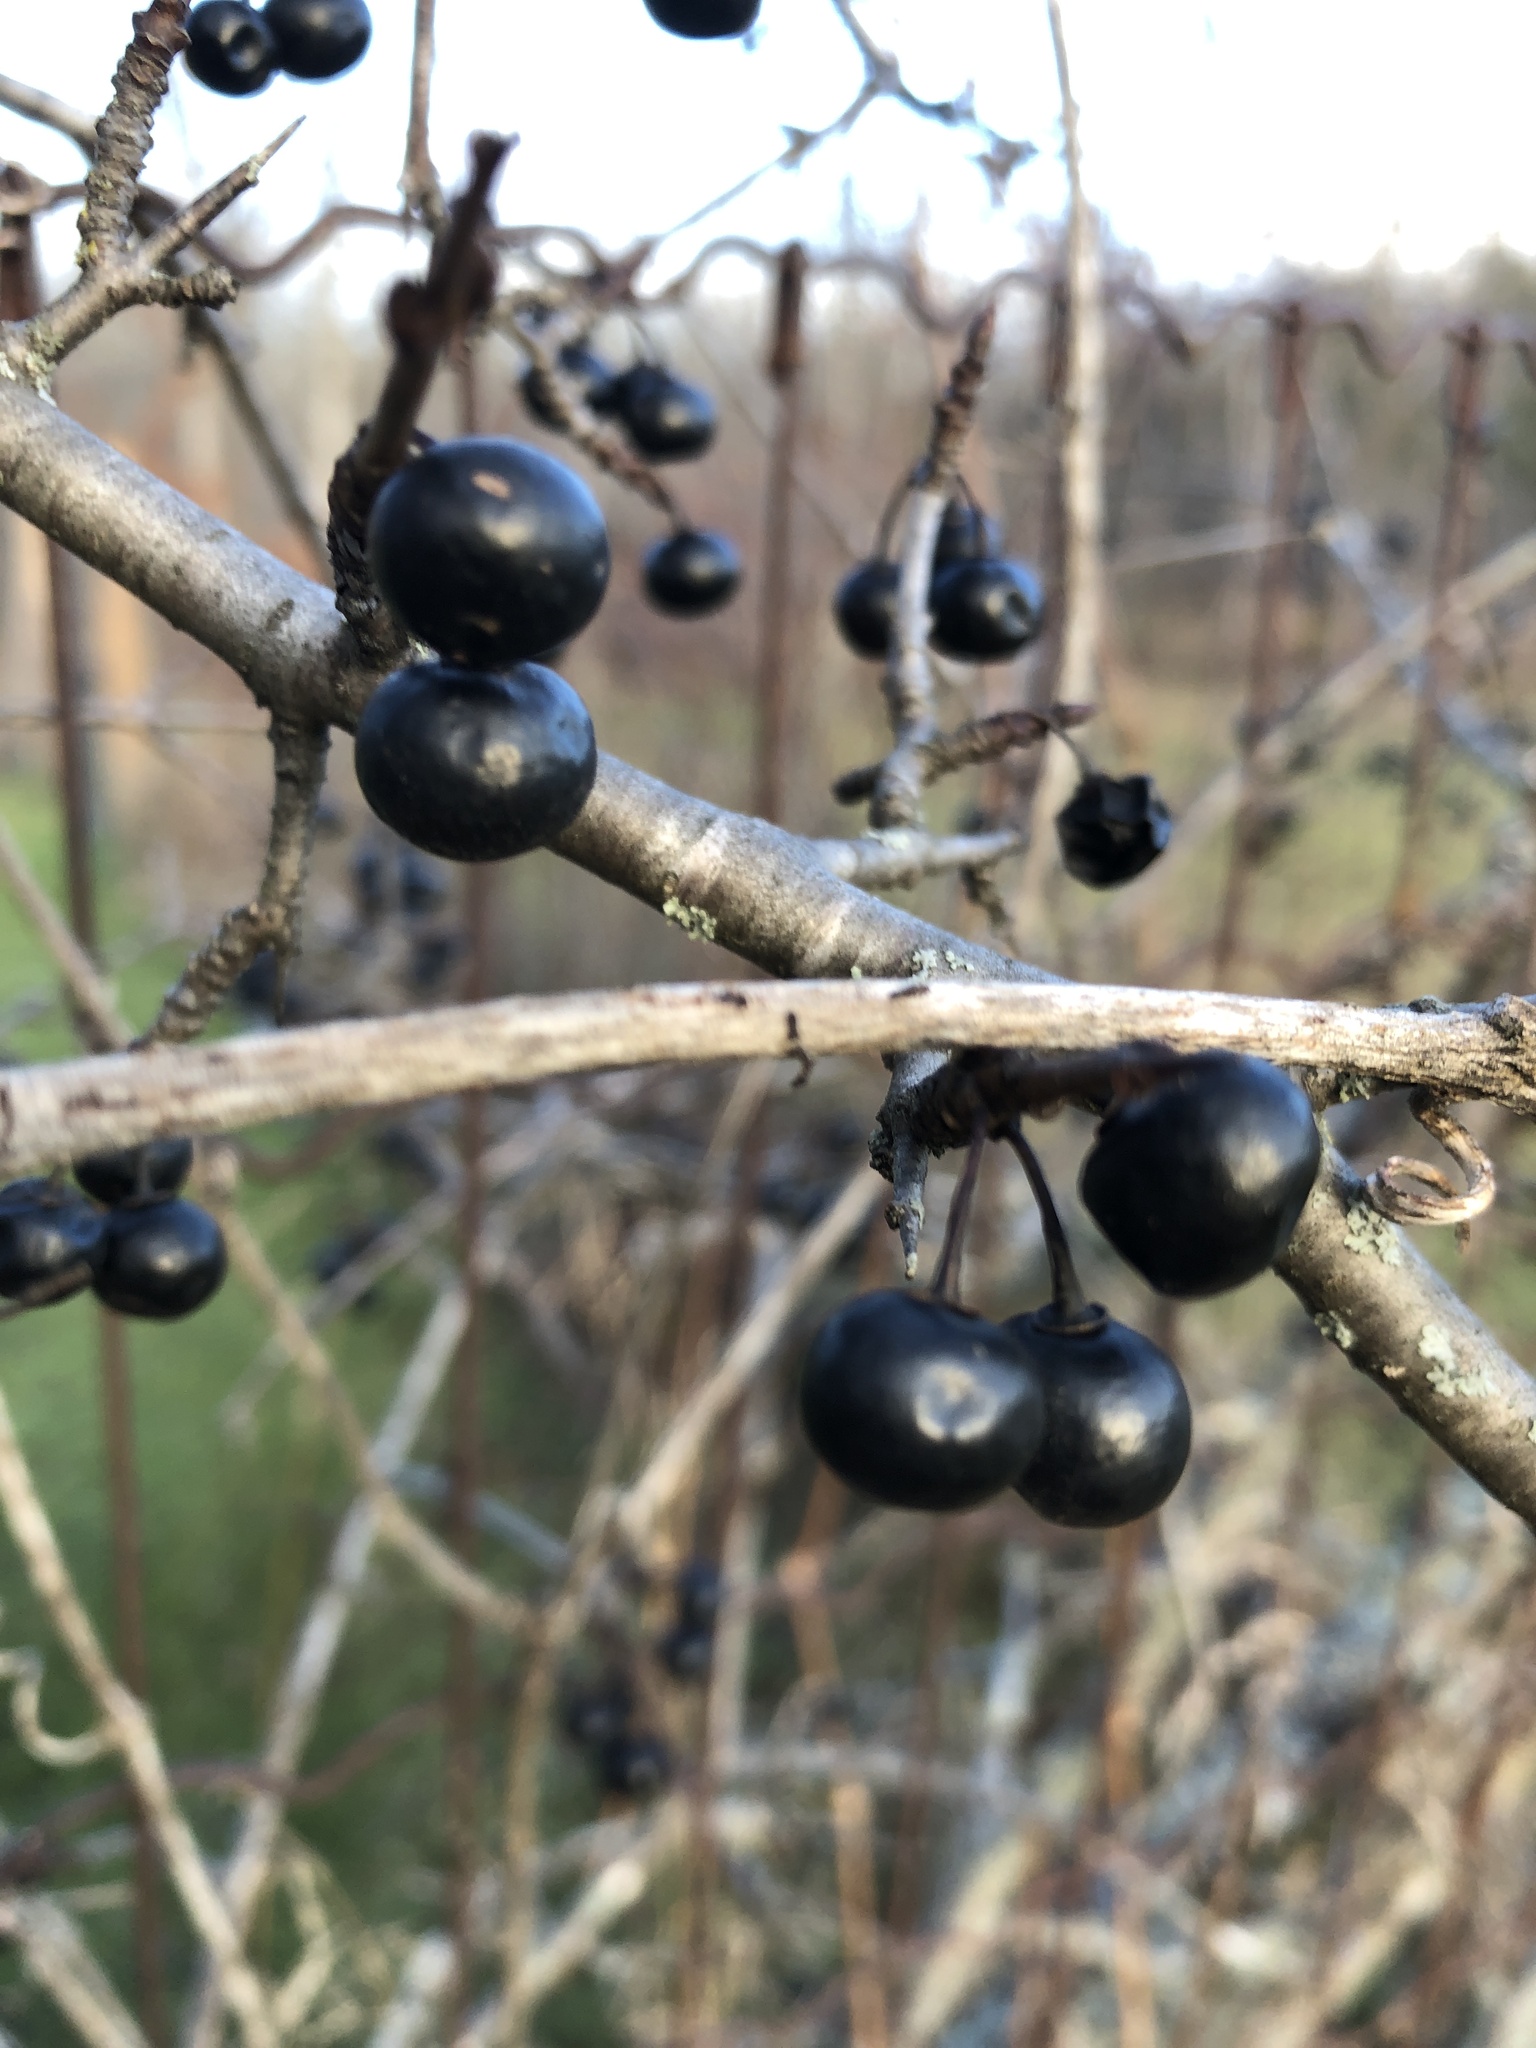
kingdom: Plantae
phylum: Tracheophyta
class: Magnoliopsida
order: Rosales
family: Rhamnaceae
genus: Rhamnus
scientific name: Rhamnus cathartica
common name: Common buckthorn
